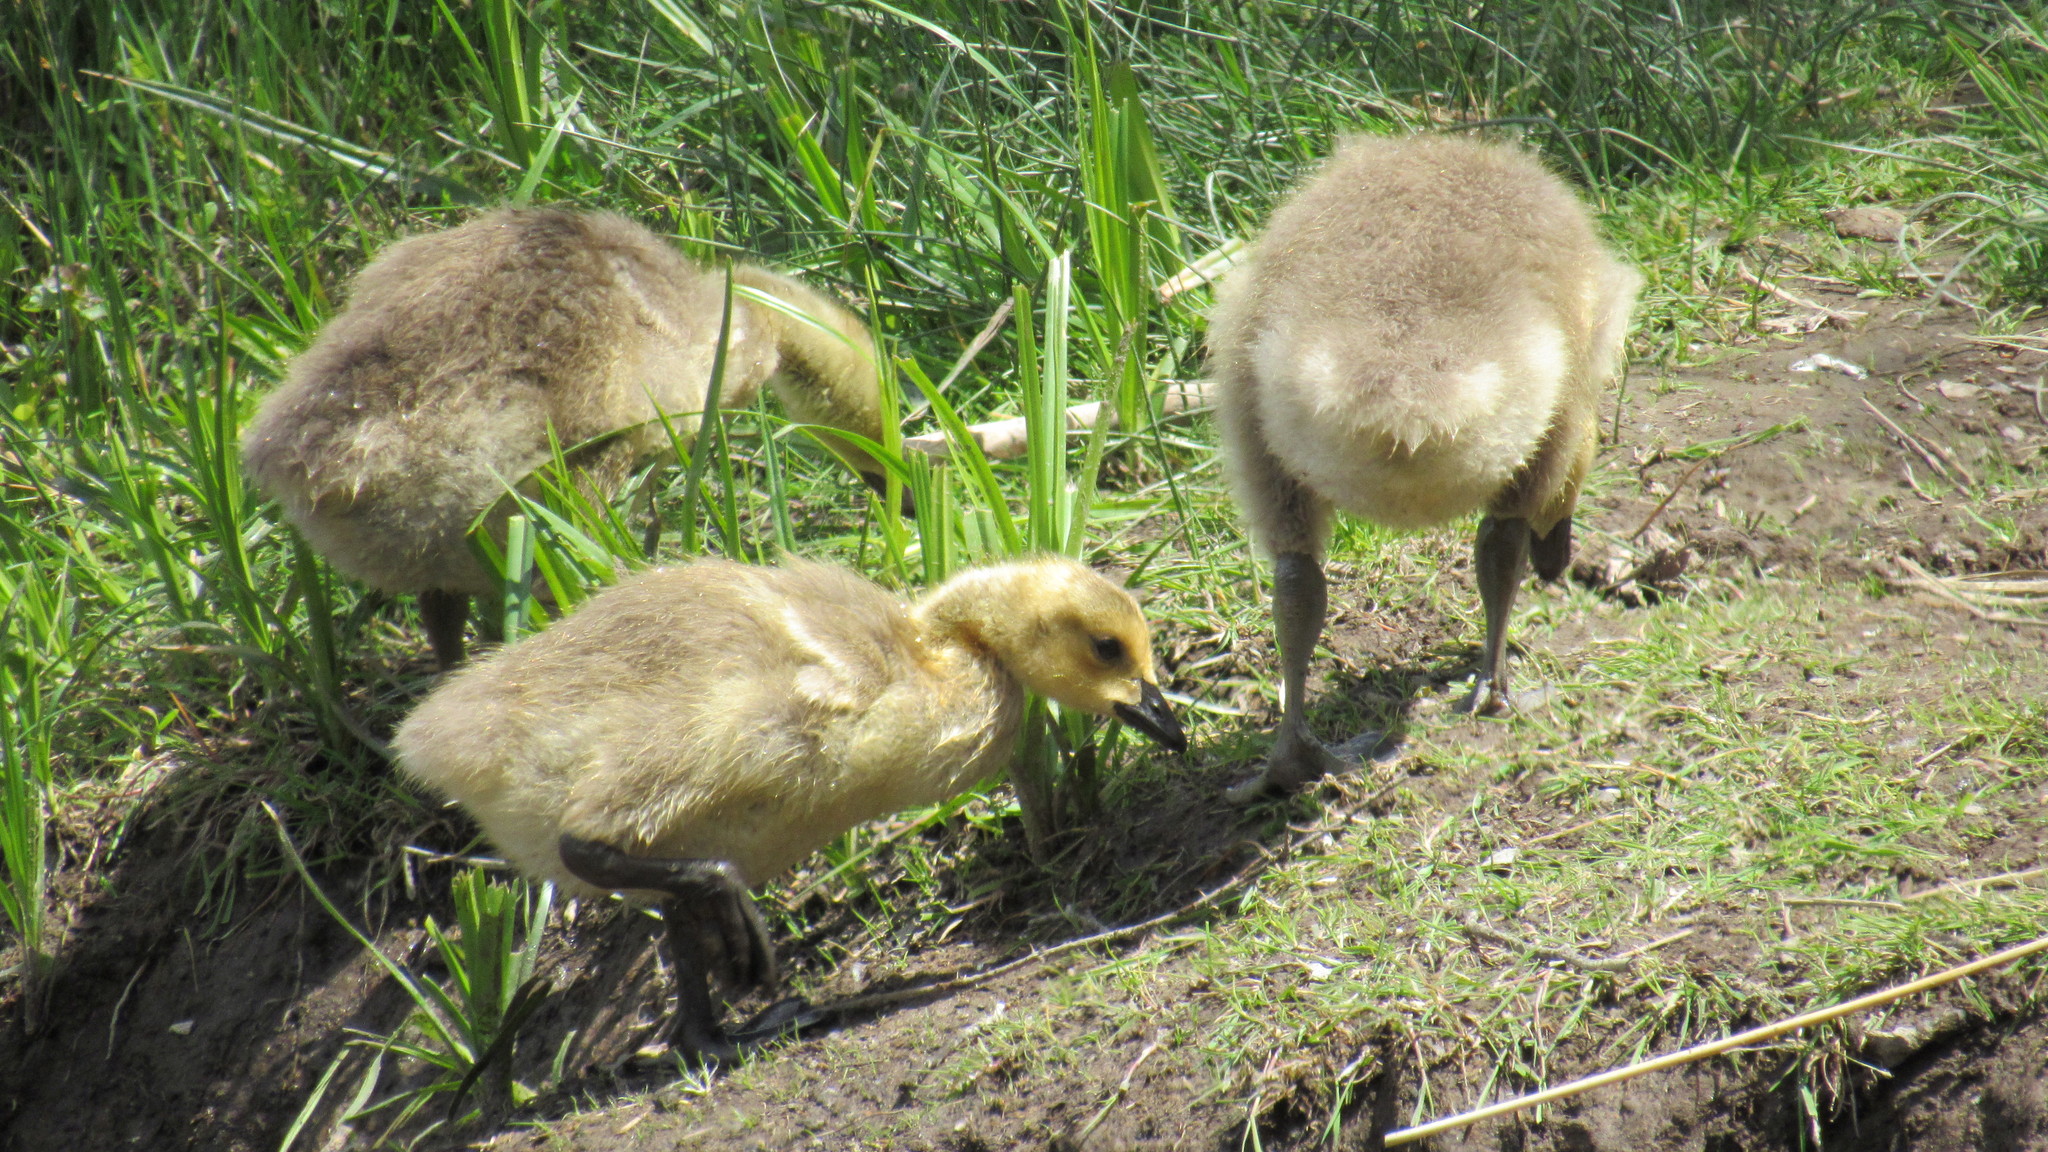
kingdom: Animalia
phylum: Chordata
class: Aves
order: Anseriformes
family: Anatidae
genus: Branta
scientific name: Branta canadensis
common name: Canada goose
